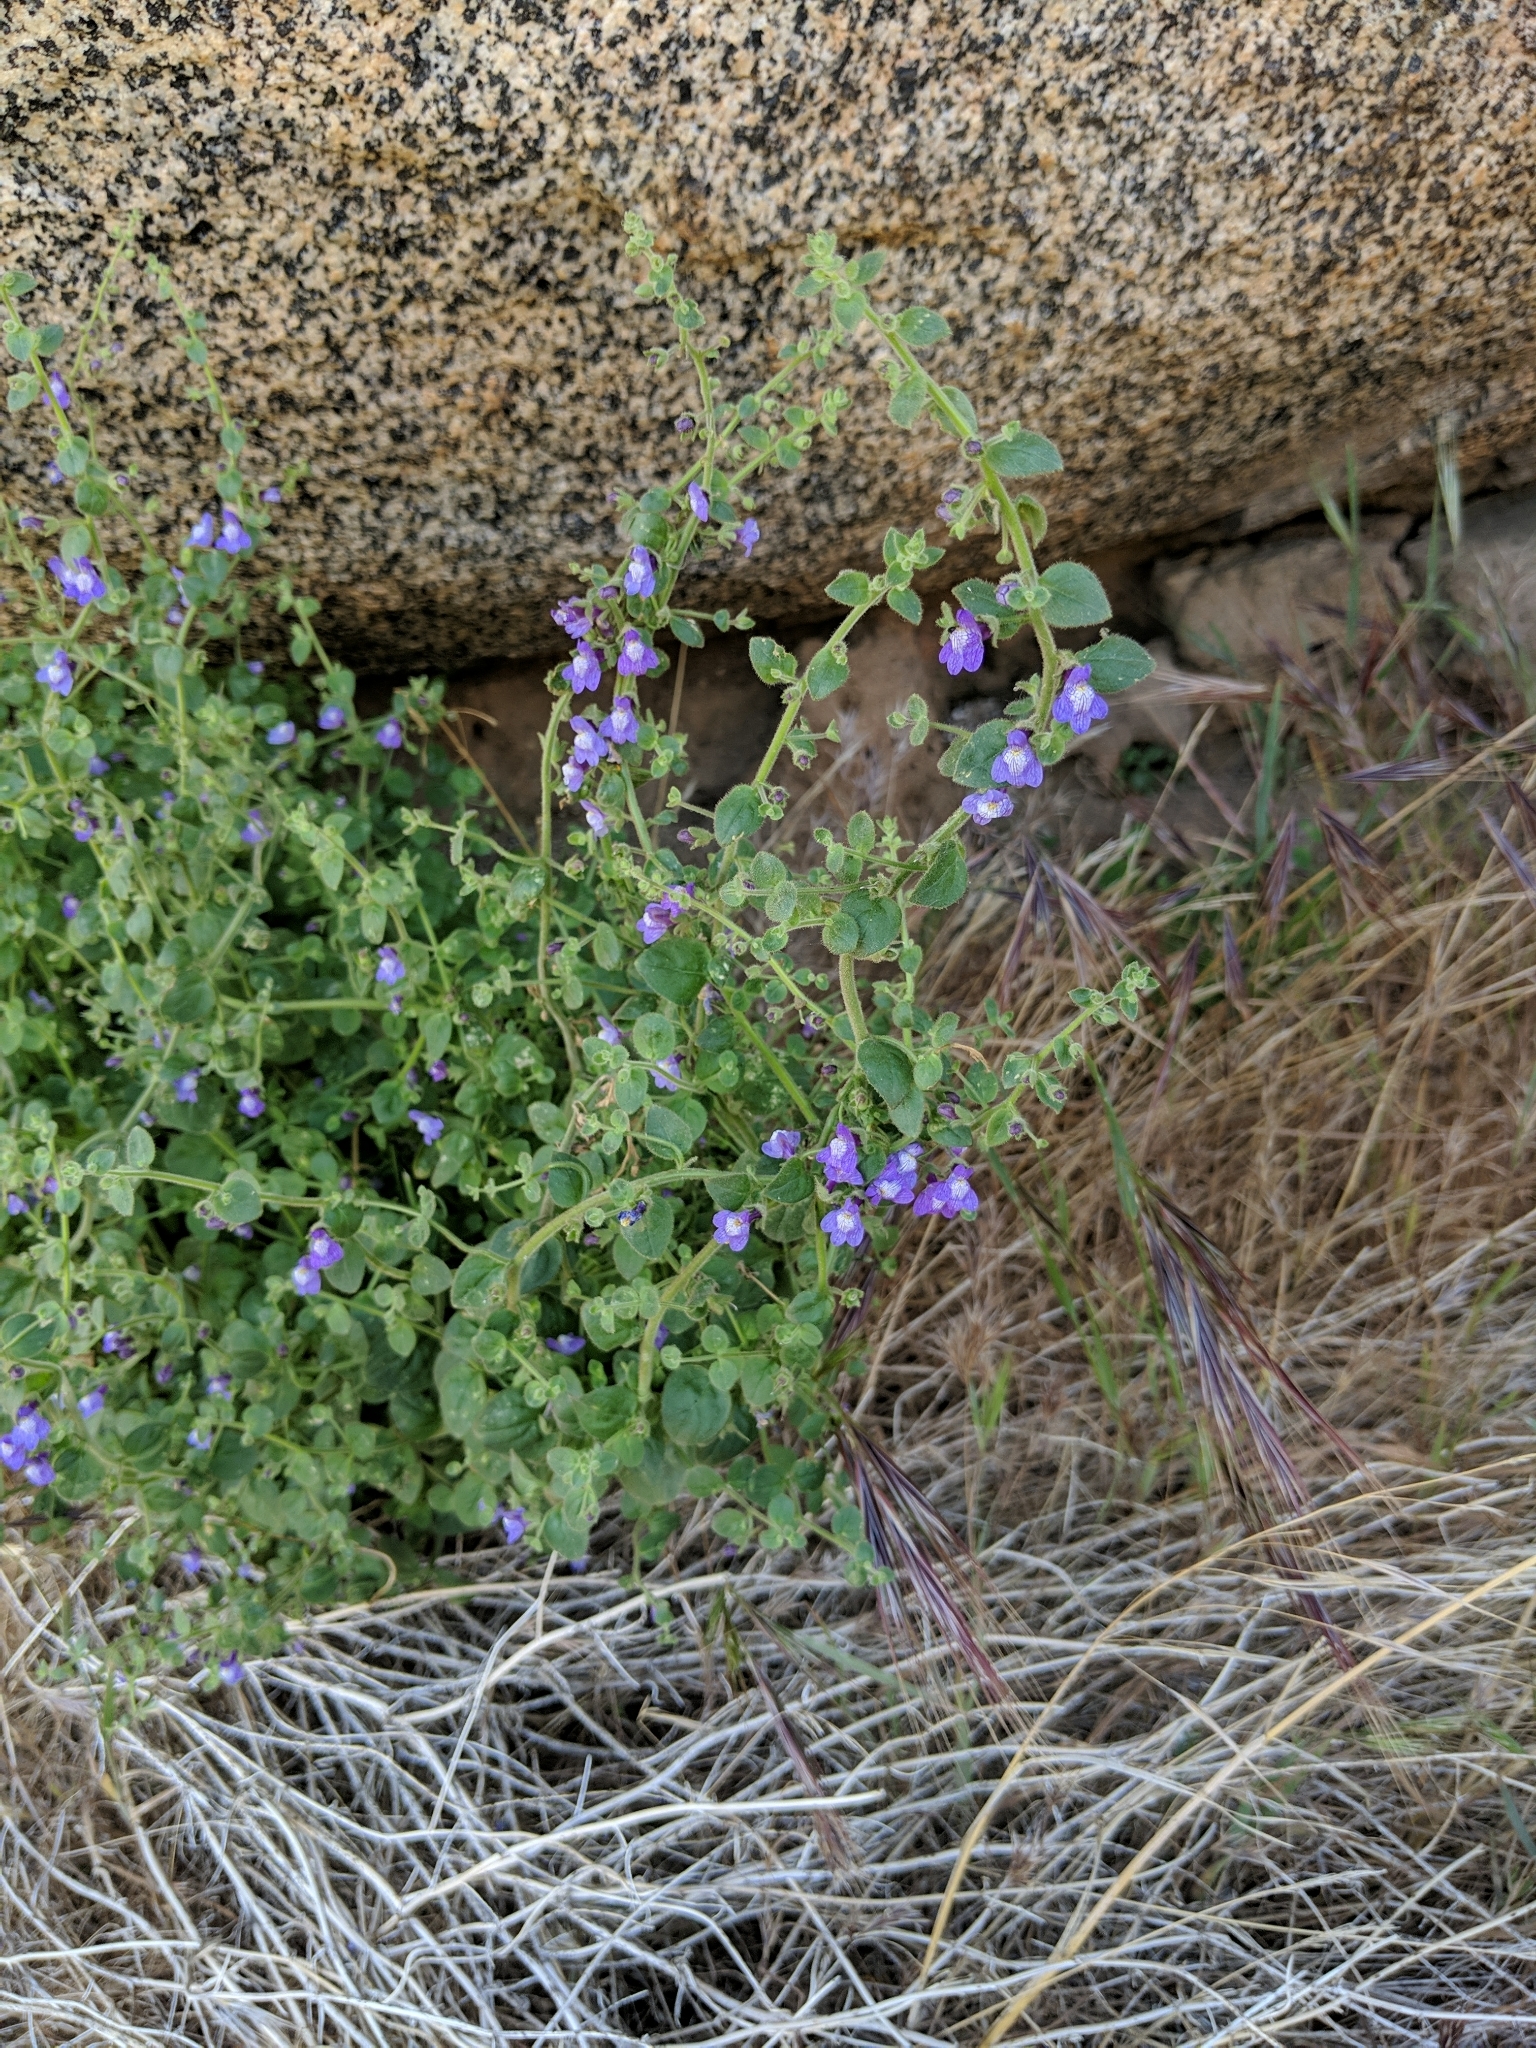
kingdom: Plantae
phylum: Tracheophyta
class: Magnoliopsida
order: Lamiales
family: Plantaginaceae
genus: Sairocarpus
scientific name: Sairocarpus nuttallianus
